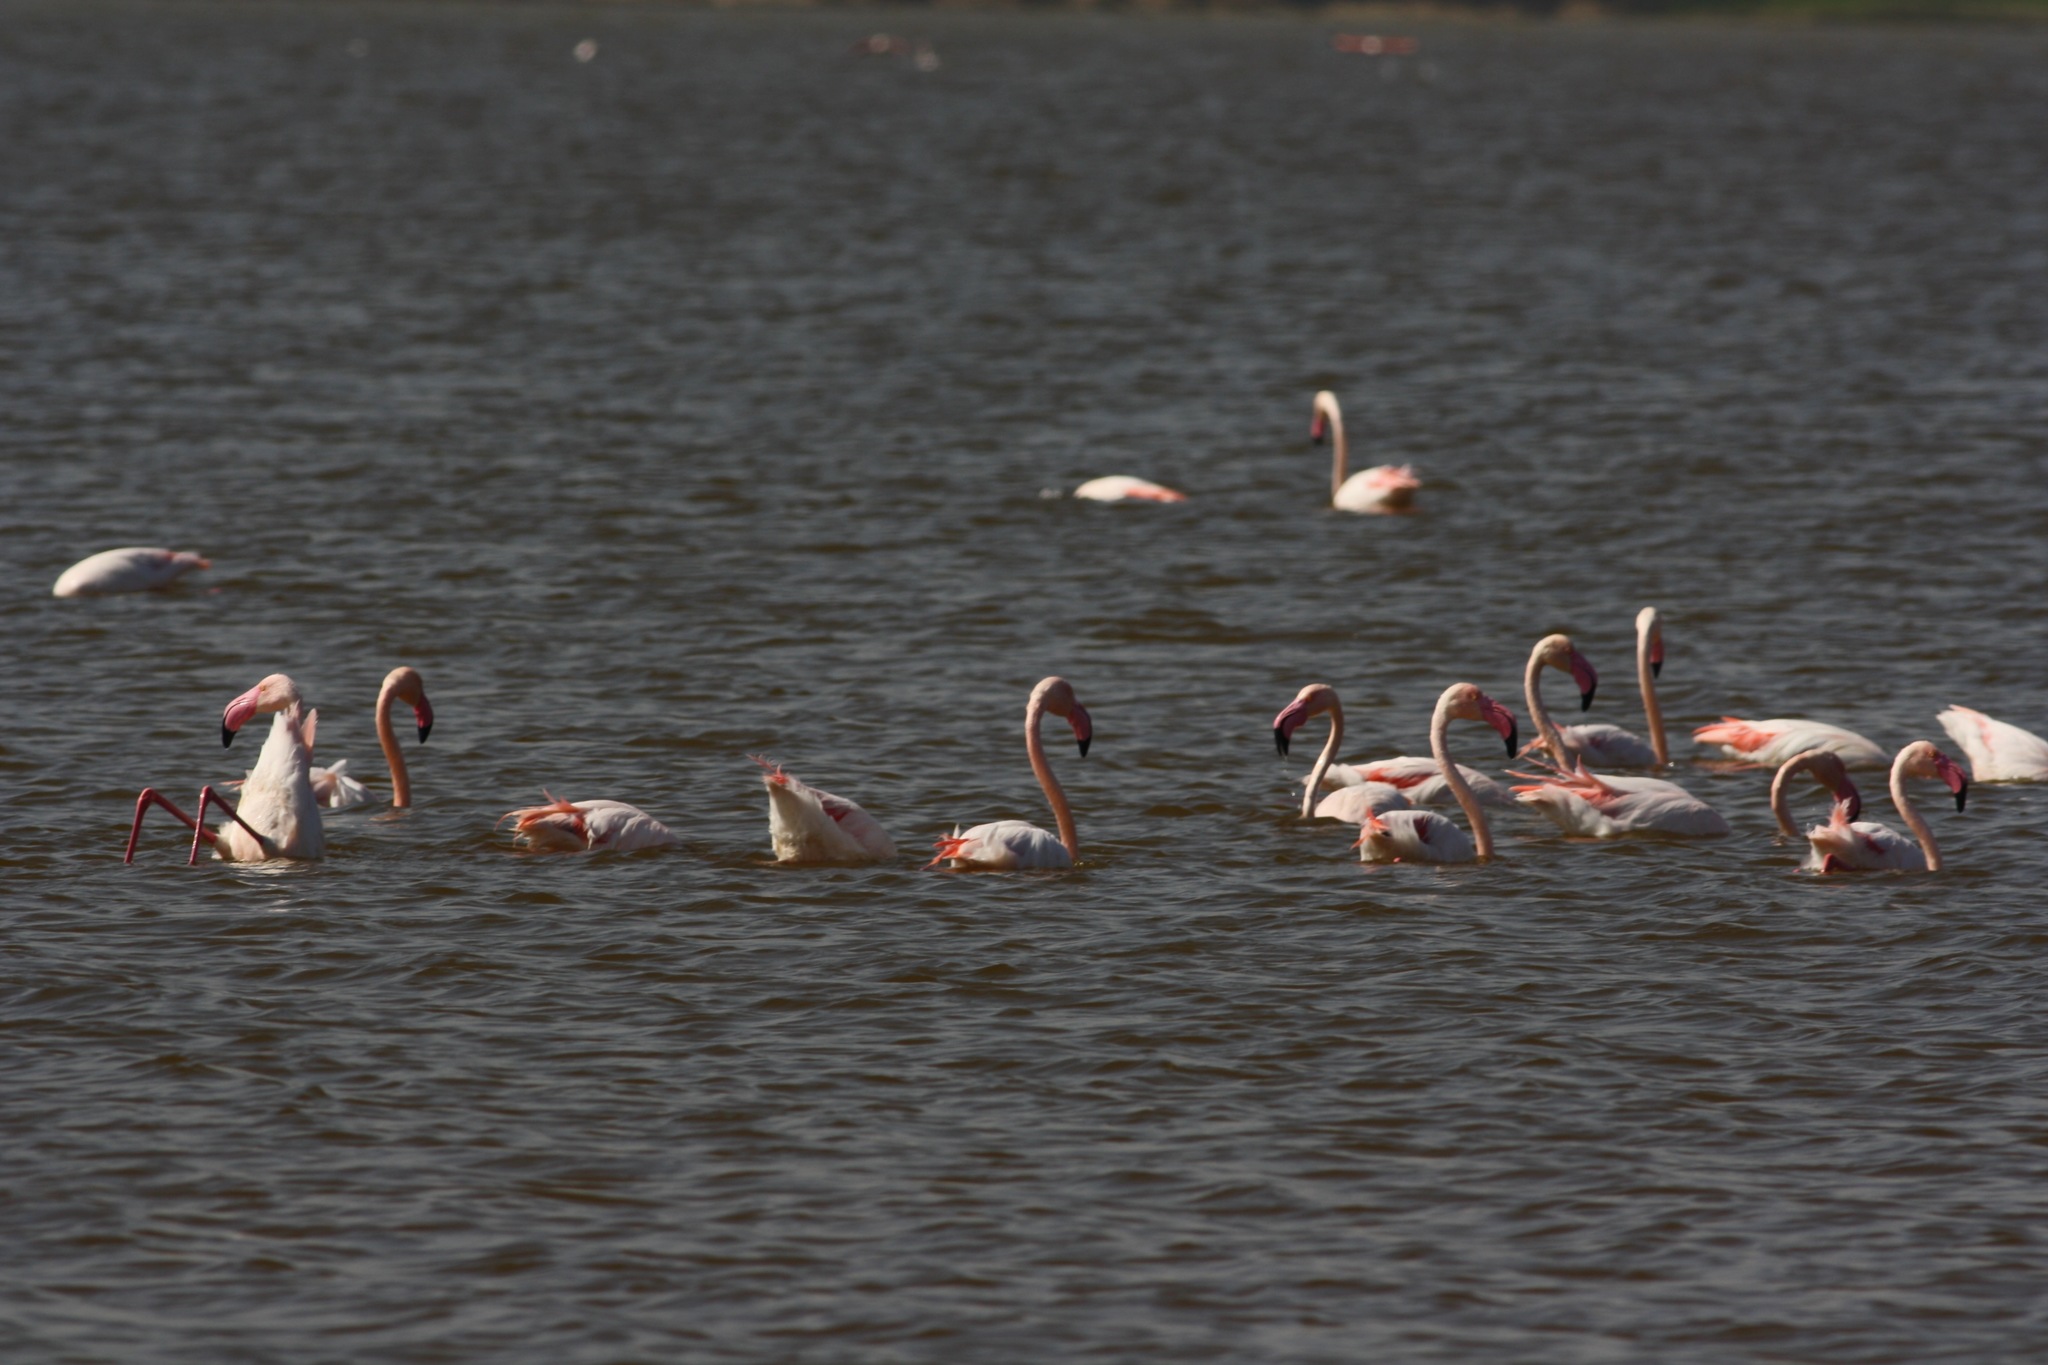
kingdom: Animalia
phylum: Chordata
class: Aves
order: Phoenicopteriformes
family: Phoenicopteridae
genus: Phoenicopterus
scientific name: Phoenicopterus roseus
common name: Greater flamingo
